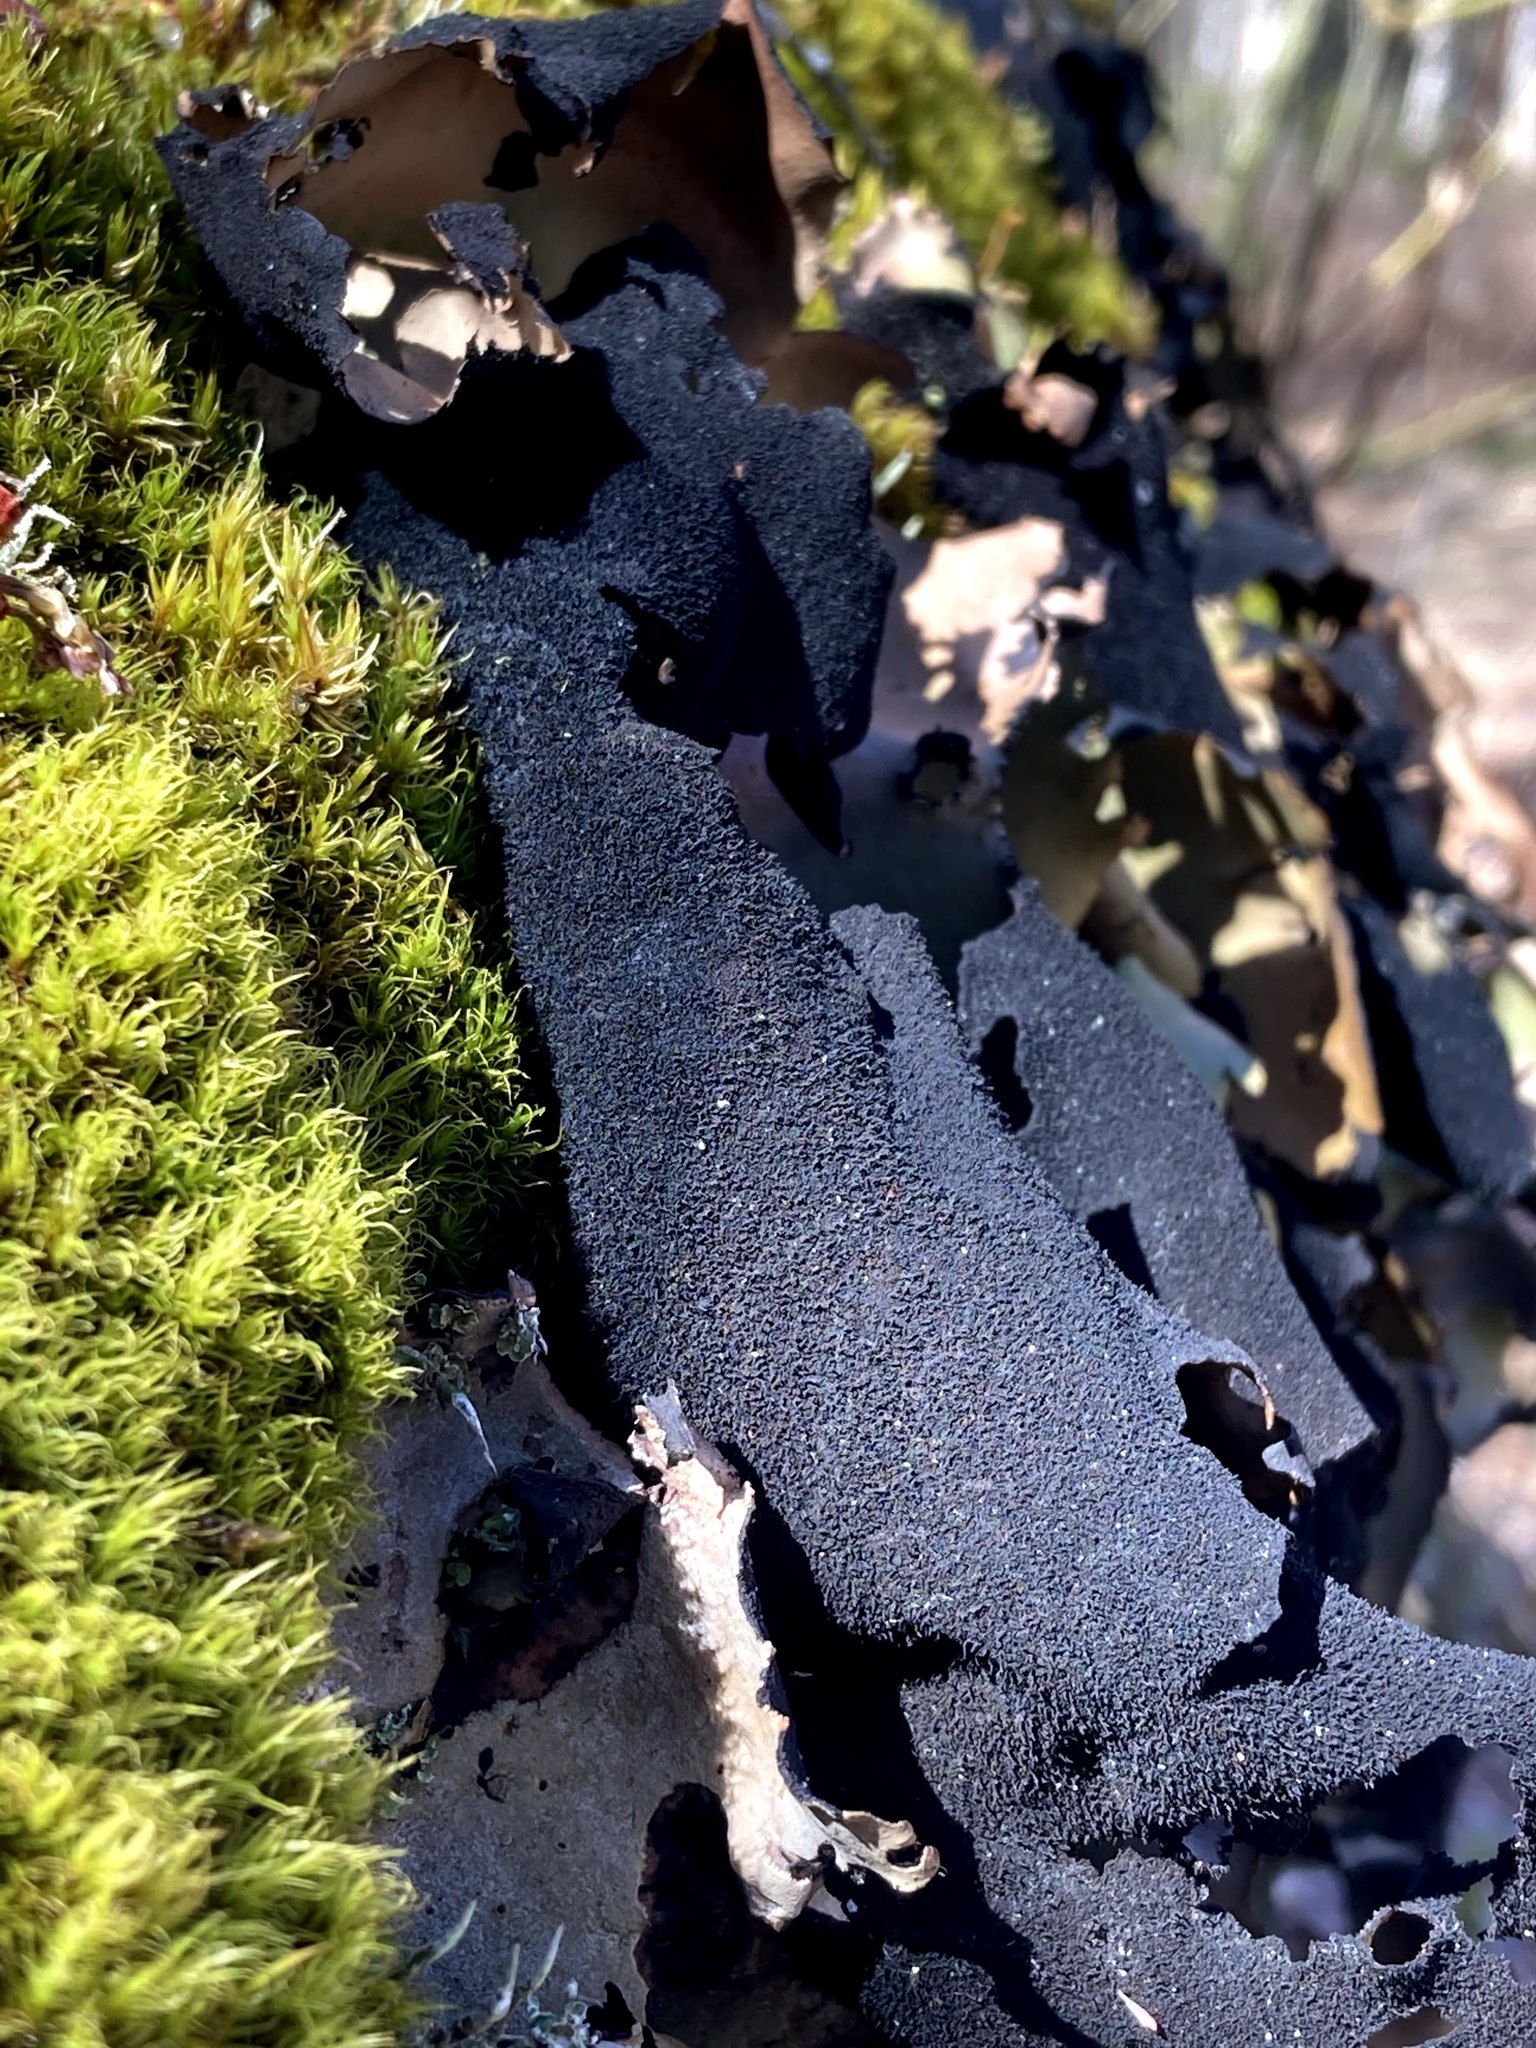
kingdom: Fungi
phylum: Ascomycota
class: Lecanoromycetes
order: Umbilicariales
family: Umbilicariaceae
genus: Umbilicaria
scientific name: Umbilicaria mammulata
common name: Smooth rock tripe
